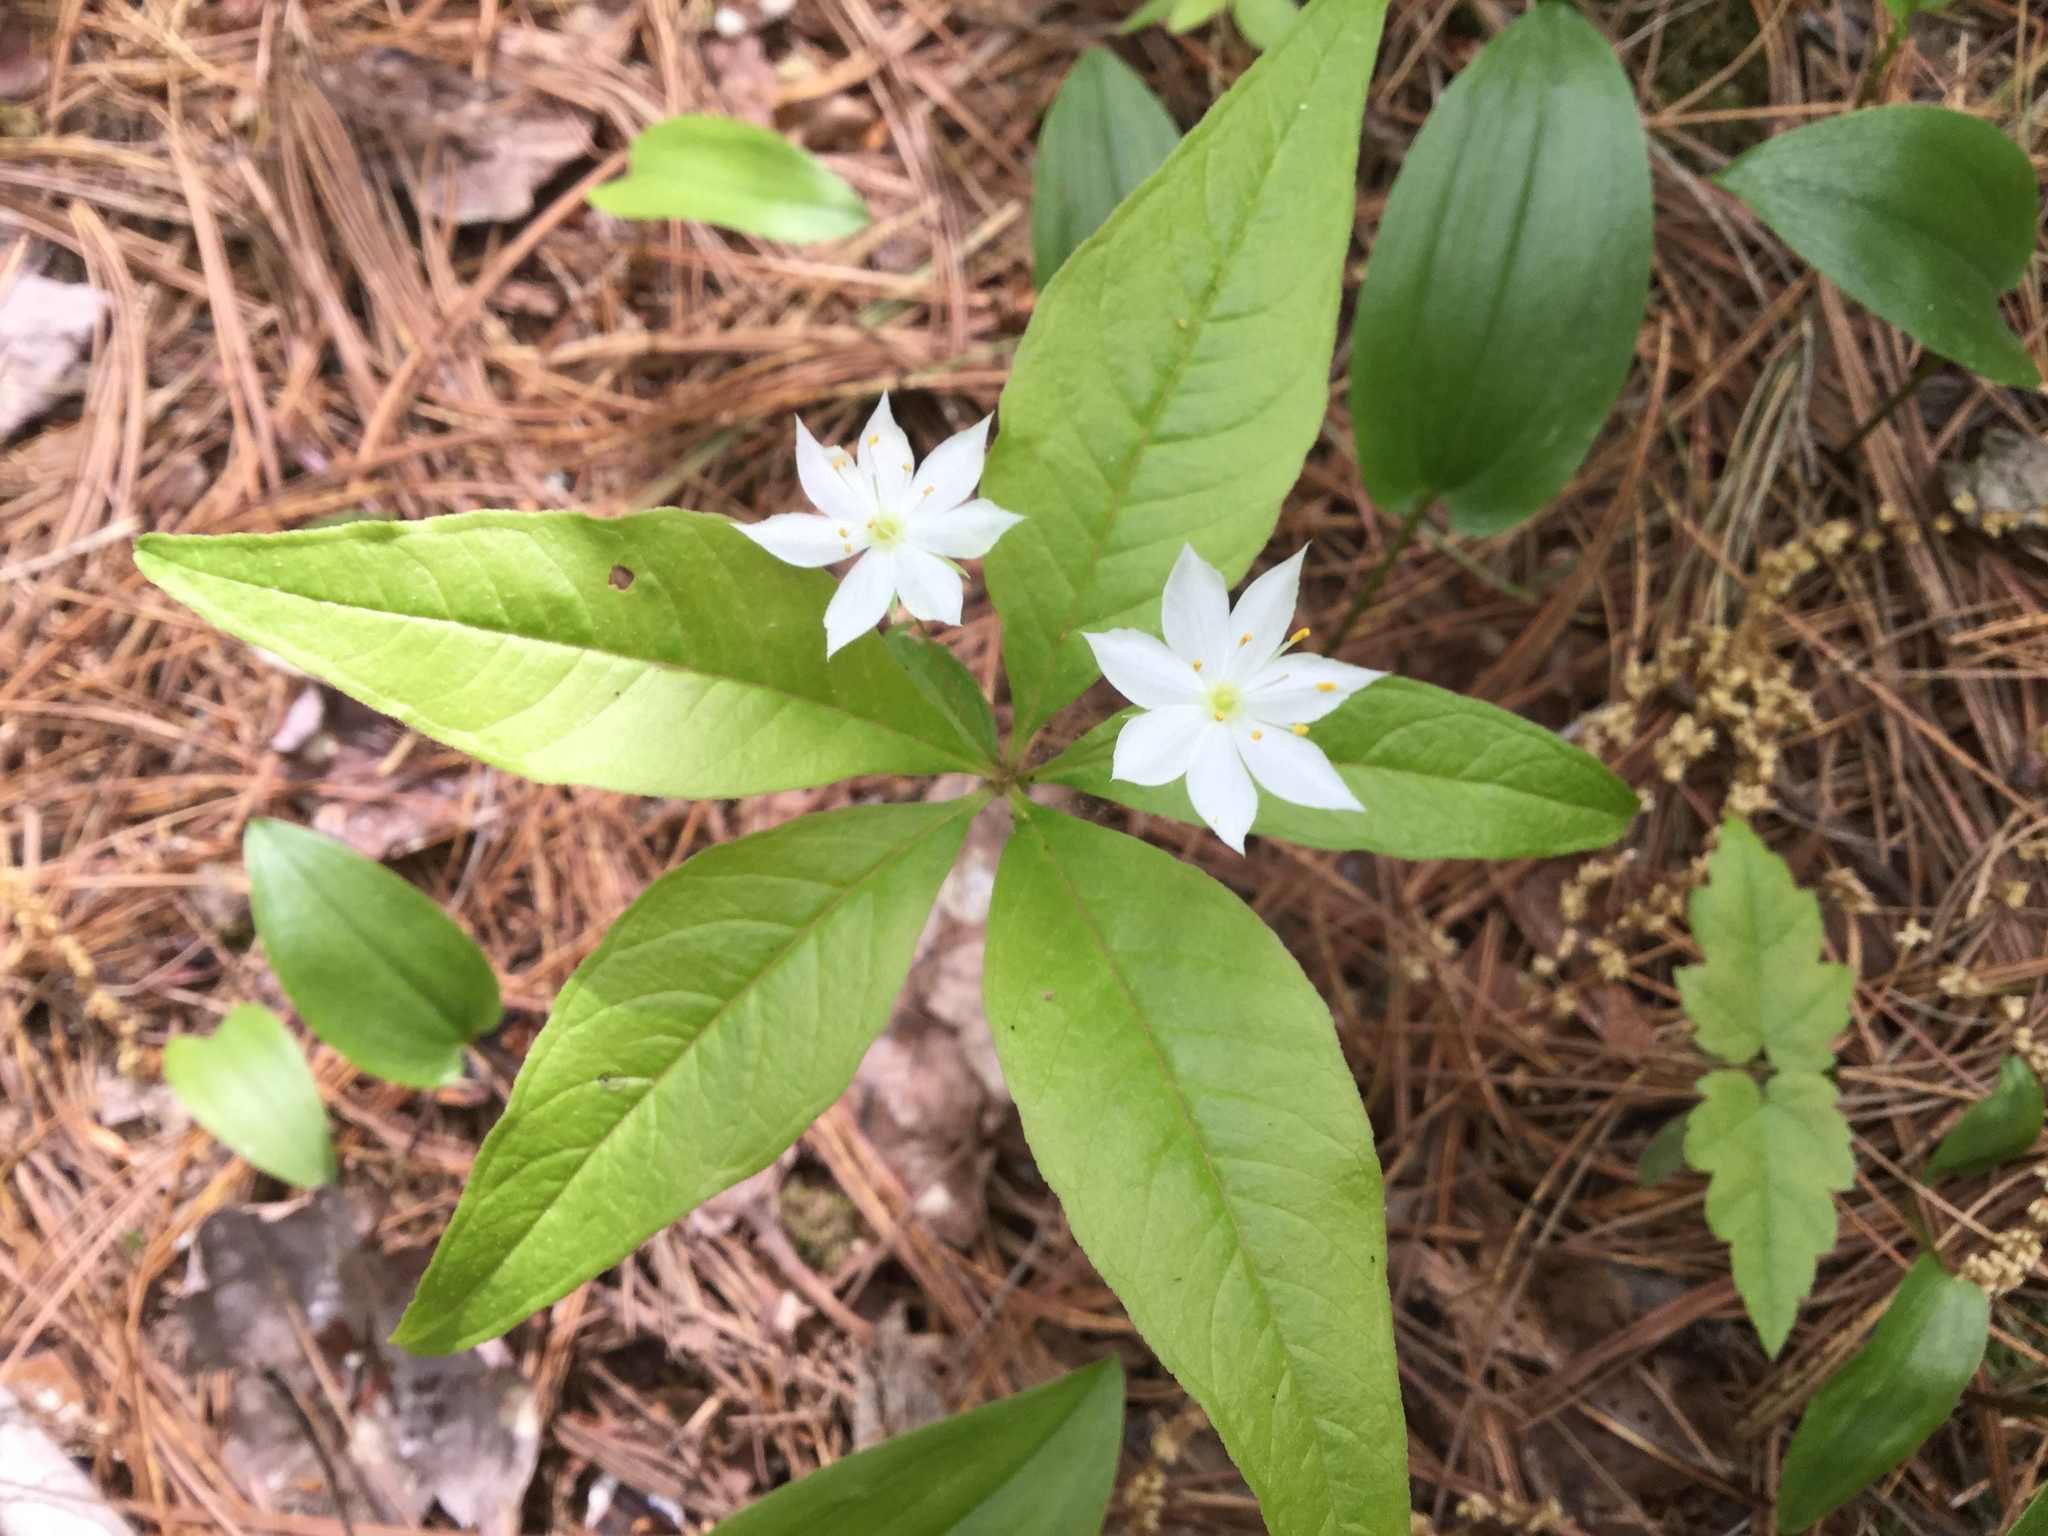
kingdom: Plantae
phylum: Tracheophyta
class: Magnoliopsida
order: Ericales
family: Primulaceae
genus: Lysimachia
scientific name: Lysimachia borealis
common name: American starflower
